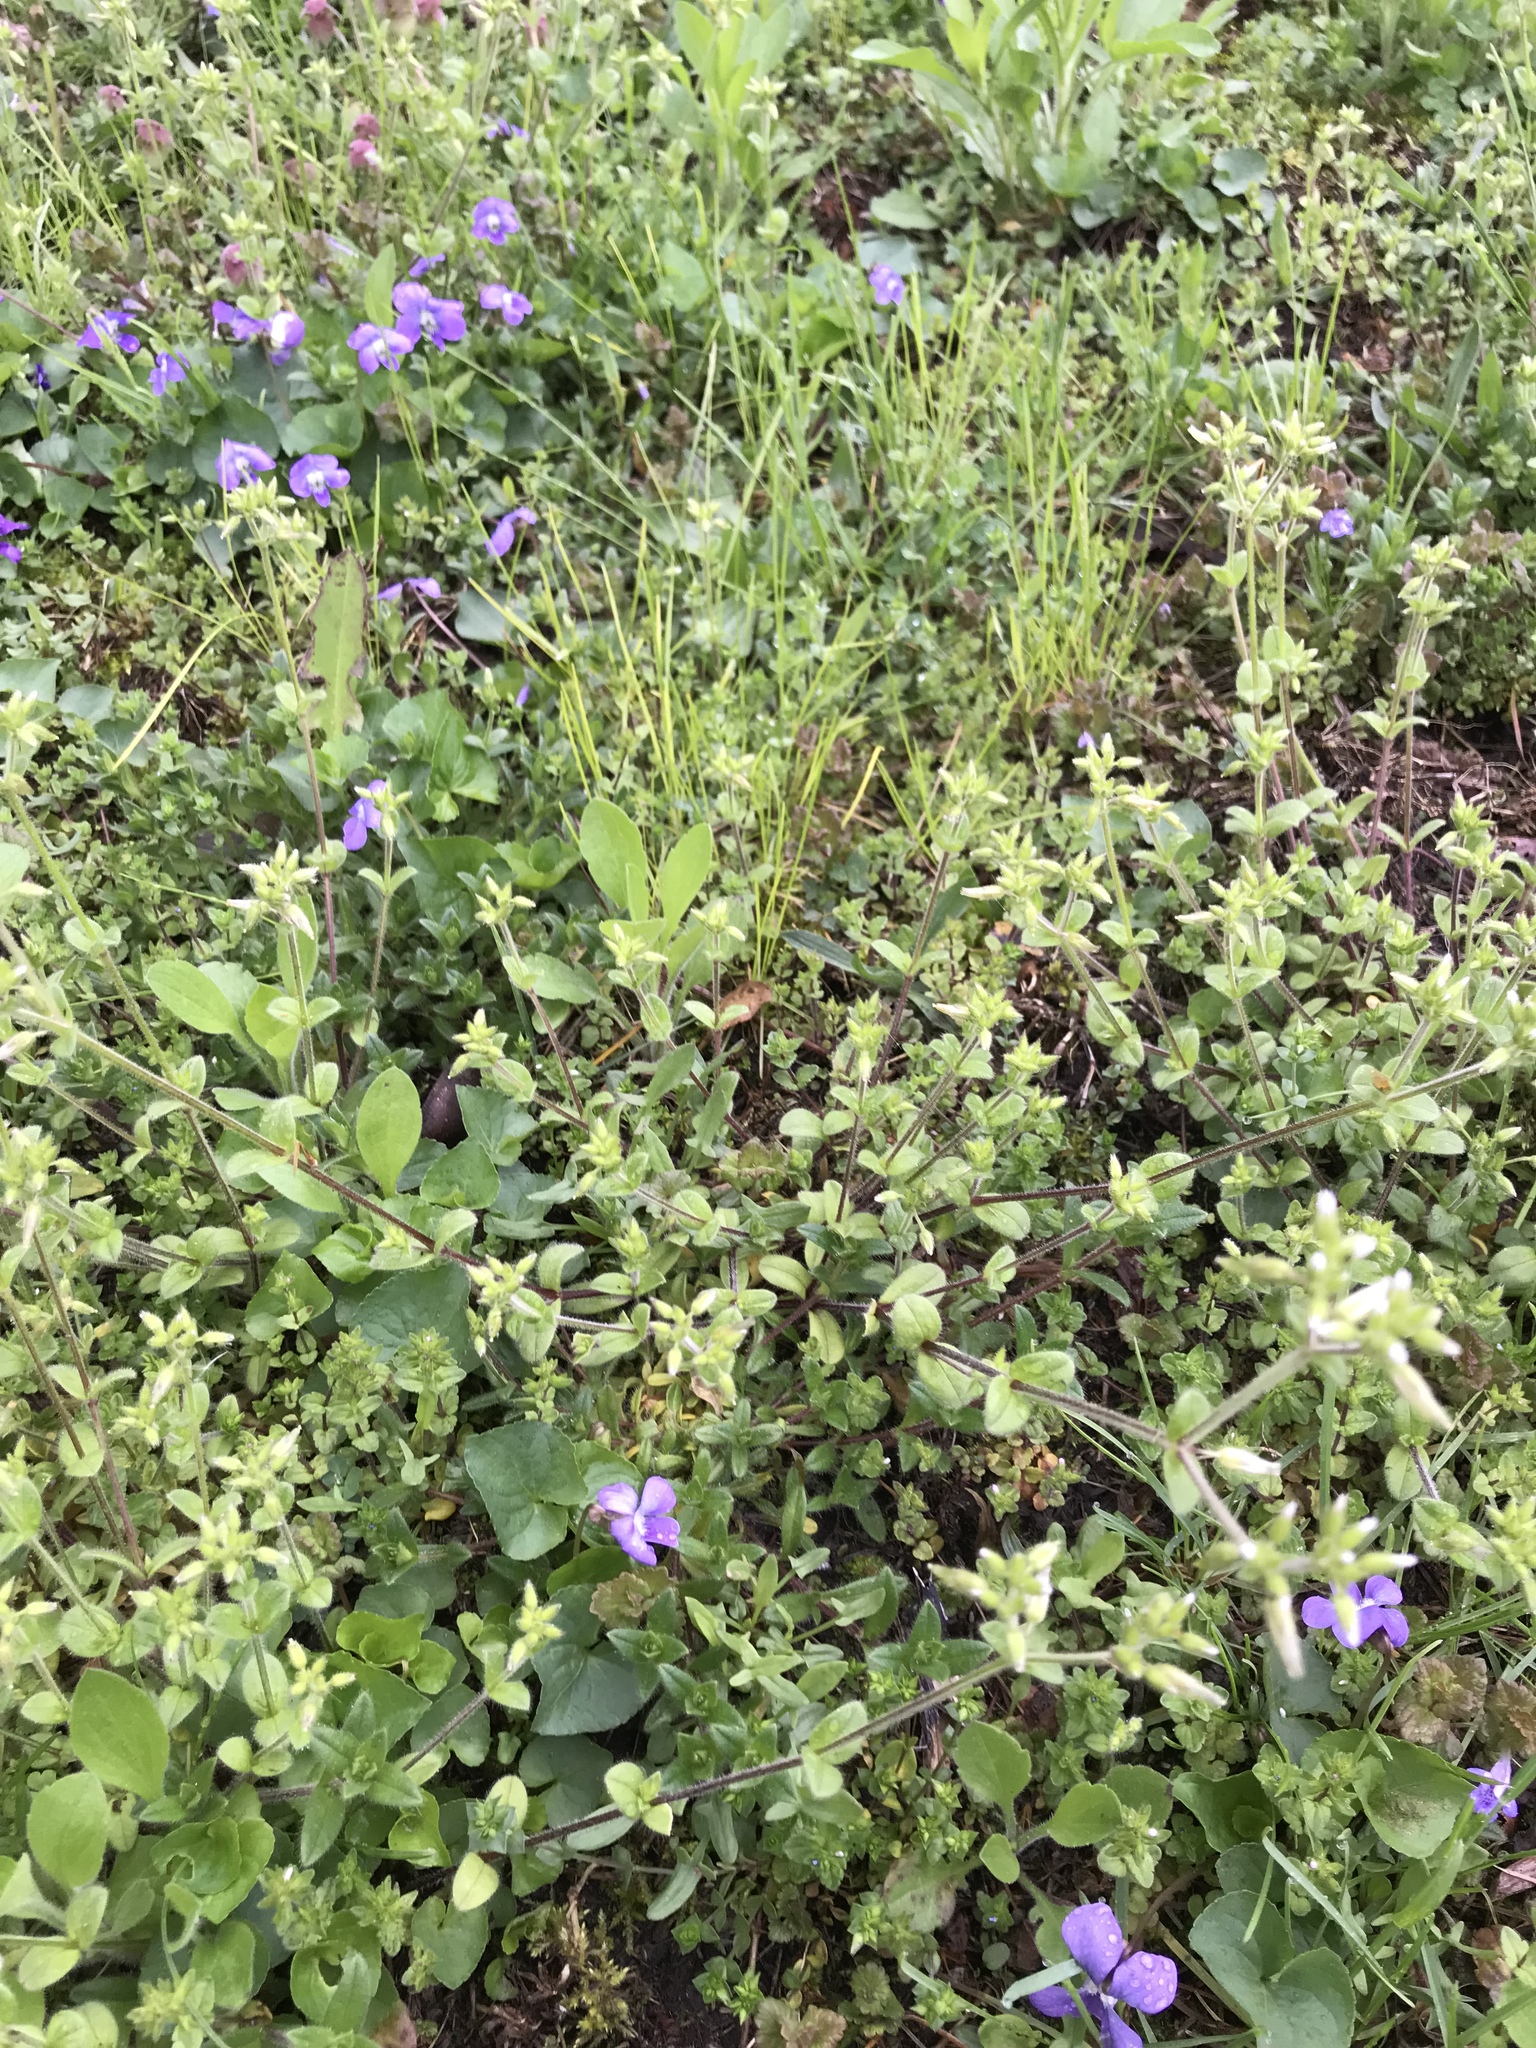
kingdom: Plantae
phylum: Tracheophyta
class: Magnoliopsida
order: Caryophyllales
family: Caryophyllaceae
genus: Cerastium
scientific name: Cerastium fontanum
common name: Common mouse-ear
